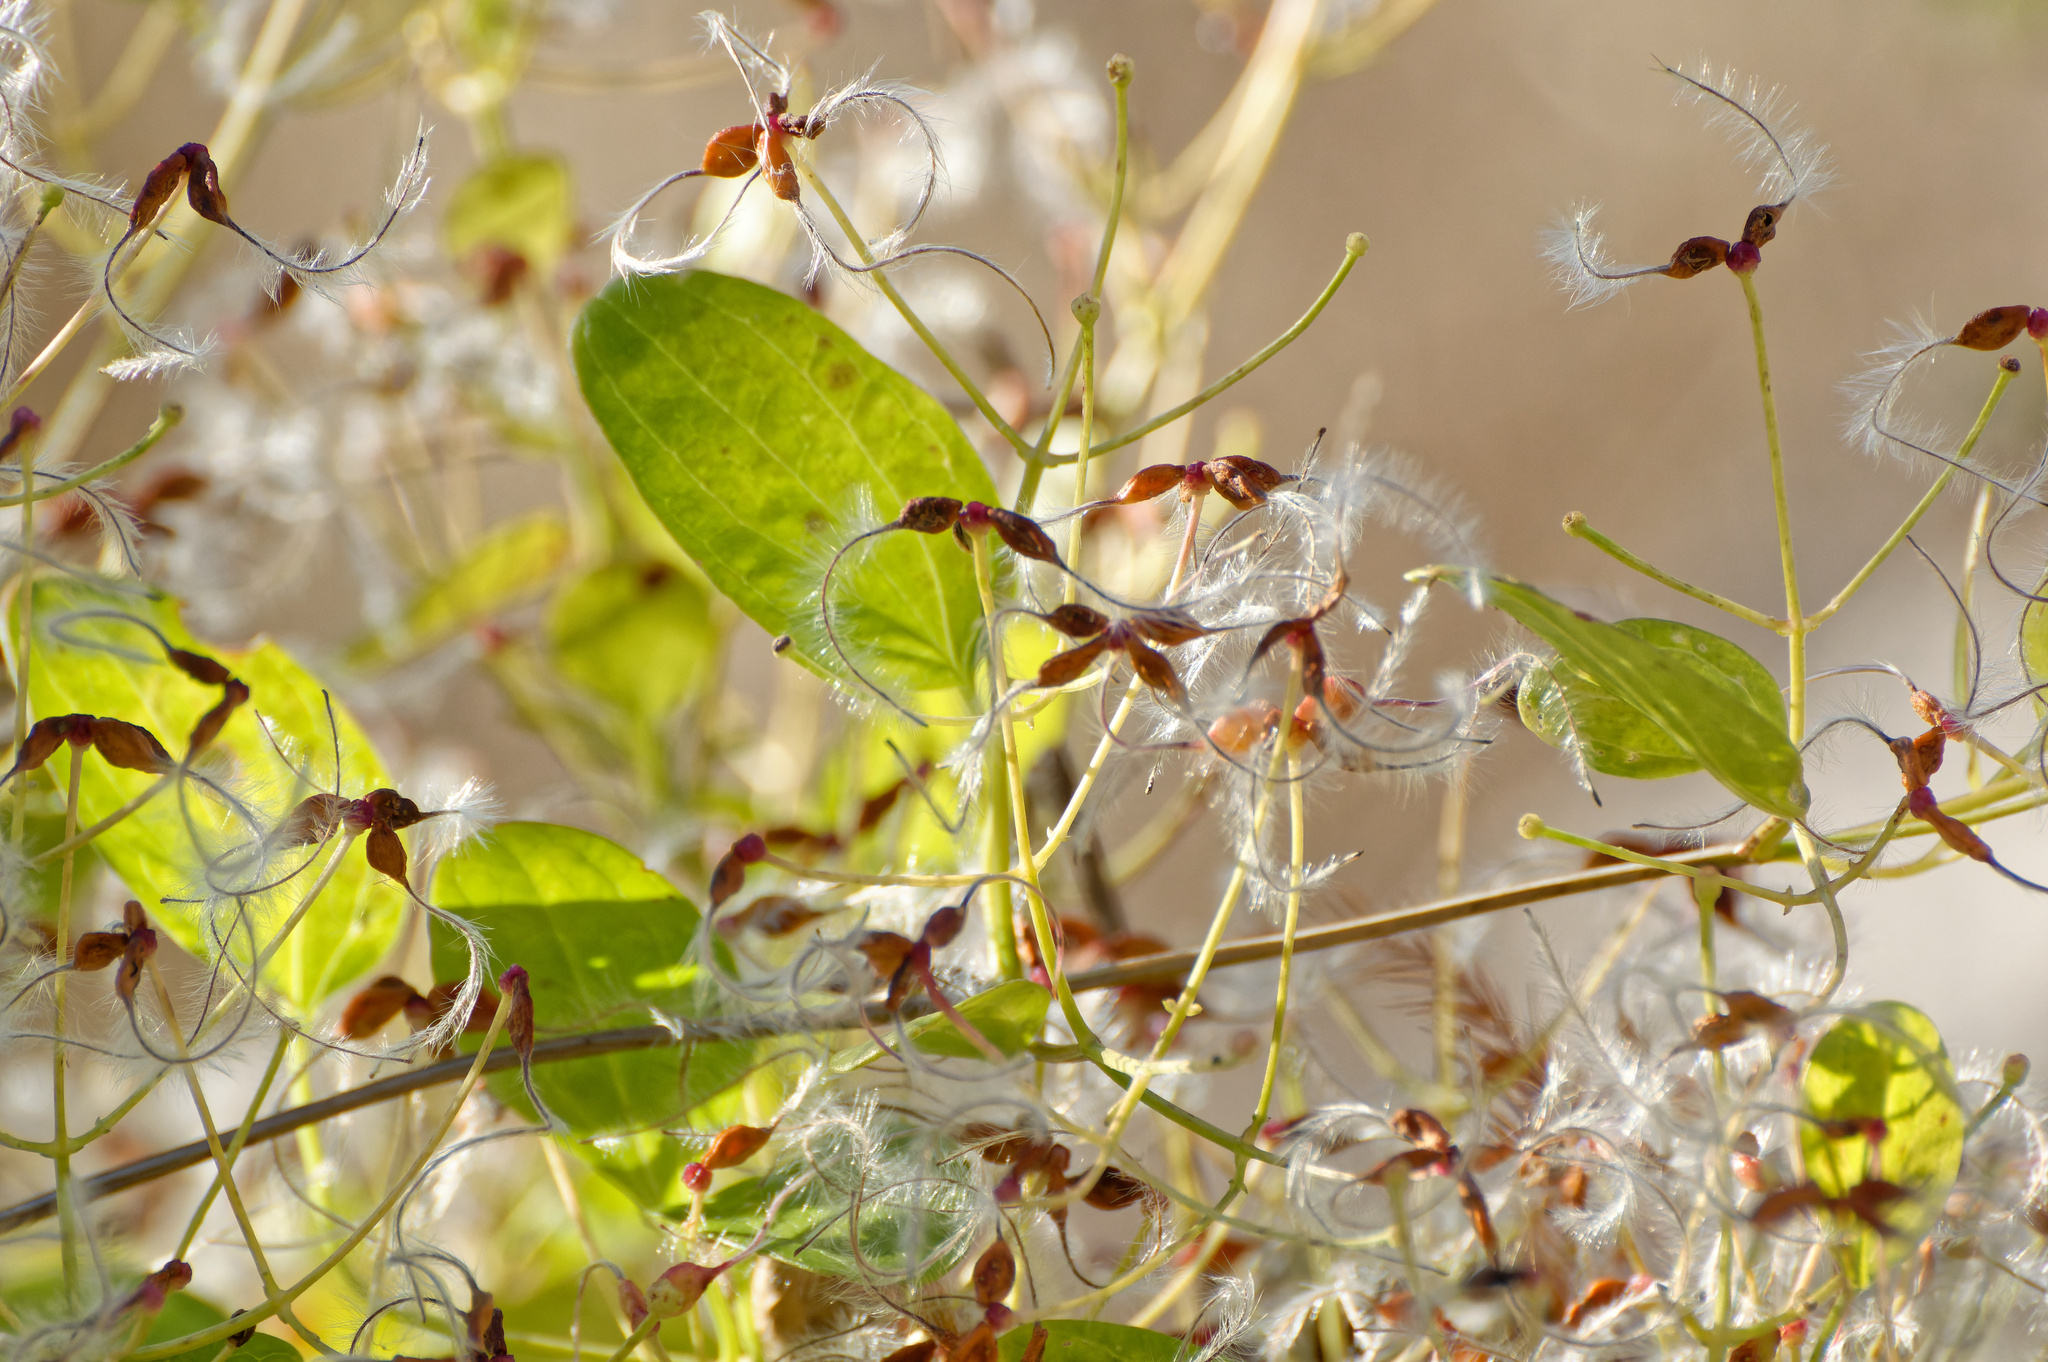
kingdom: Plantae
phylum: Tracheophyta
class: Magnoliopsida
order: Ranunculales
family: Ranunculaceae
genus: Clematis
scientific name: Clematis terniflora
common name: Sweet autumn clematis
